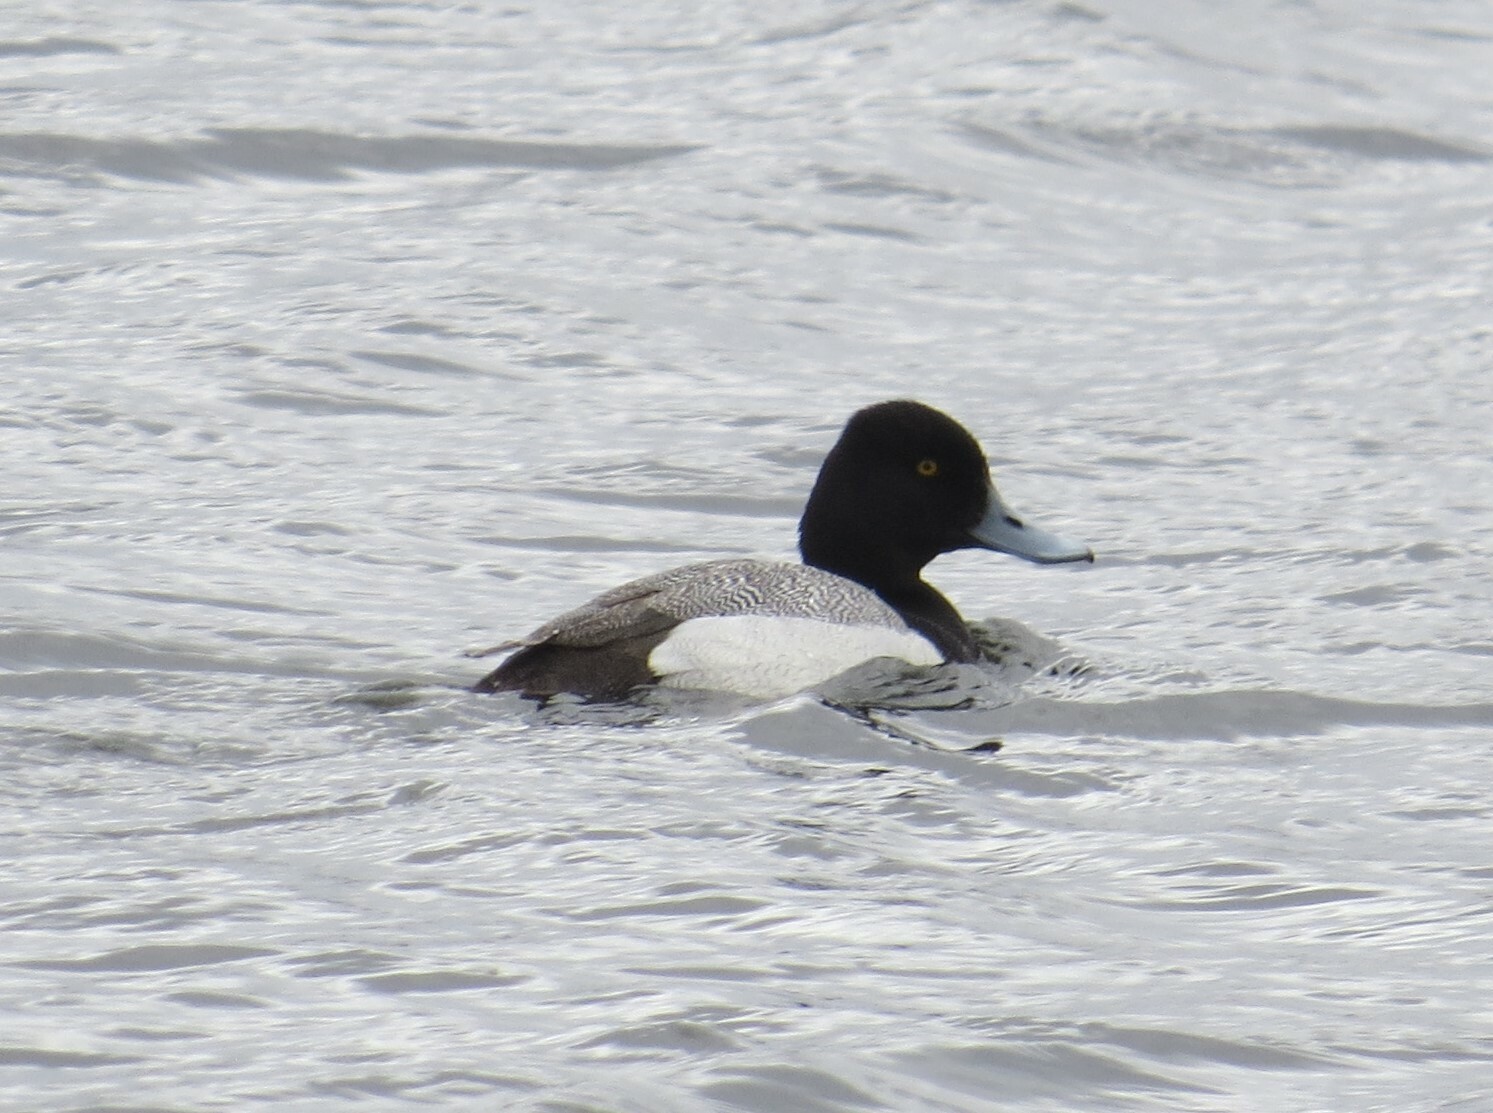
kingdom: Animalia
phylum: Chordata
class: Aves
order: Anseriformes
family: Anatidae
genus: Aythya
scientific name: Aythya affinis
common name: Lesser scaup
